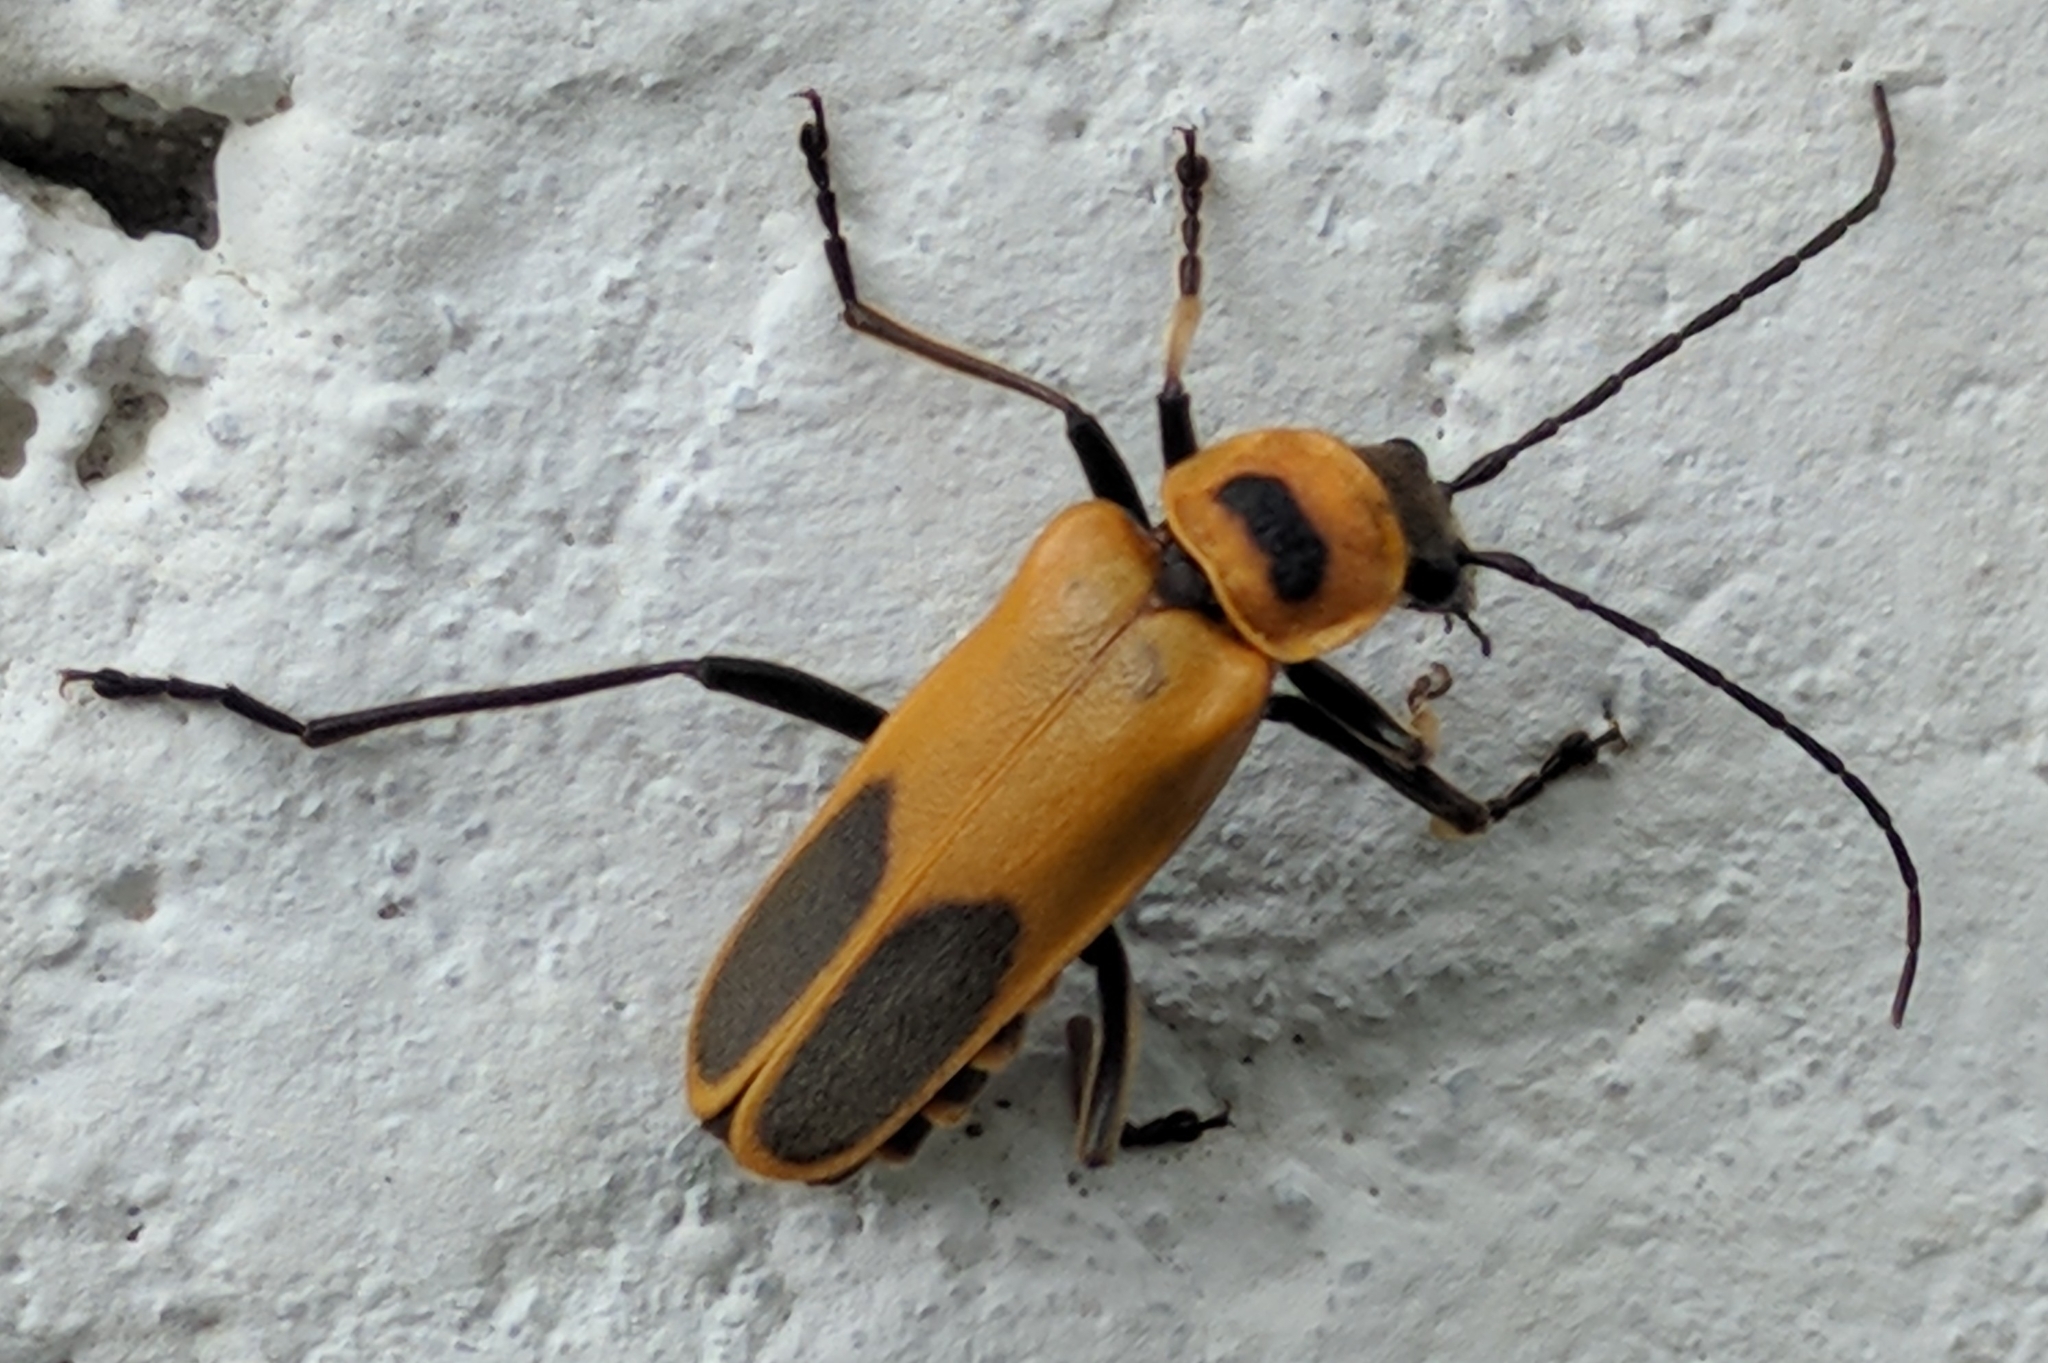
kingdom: Animalia
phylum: Arthropoda
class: Insecta
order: Coleoptera
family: Cantharidae
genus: Chauliognathus
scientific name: Chauliognathus pensylvanicus
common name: Goldenrod soldier beetle
